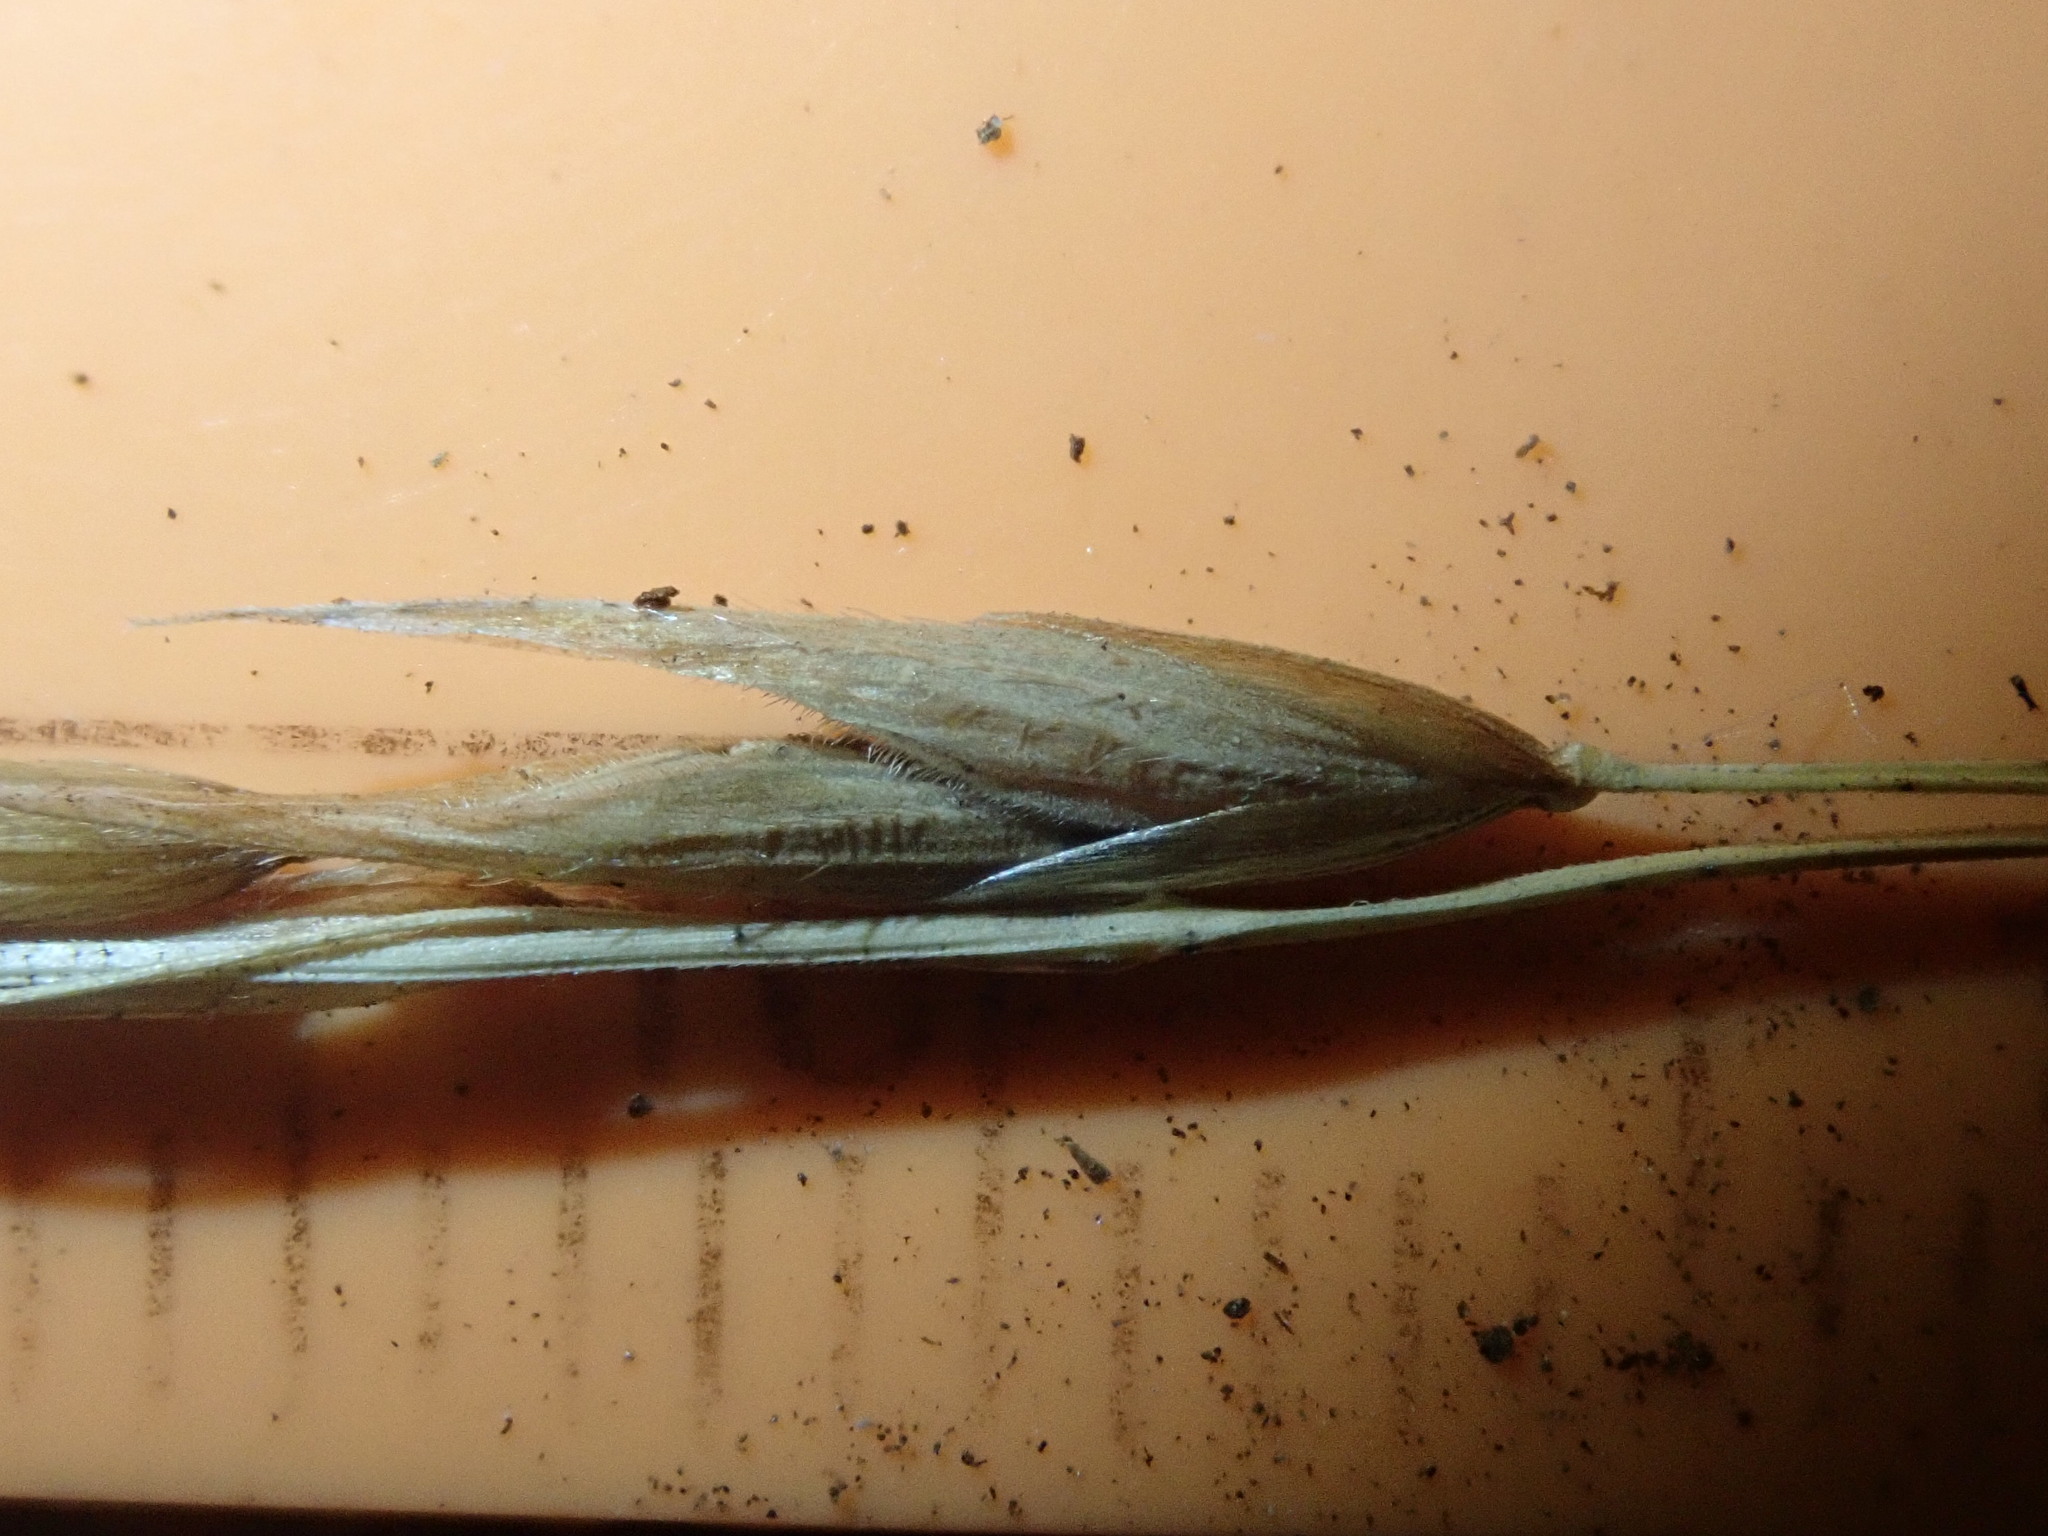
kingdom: Plantae
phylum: Tracheophyta
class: Liliopsida
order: Poales
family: Poaceae
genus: Melica
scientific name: Melica subulata
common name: Tapered oniongrass
